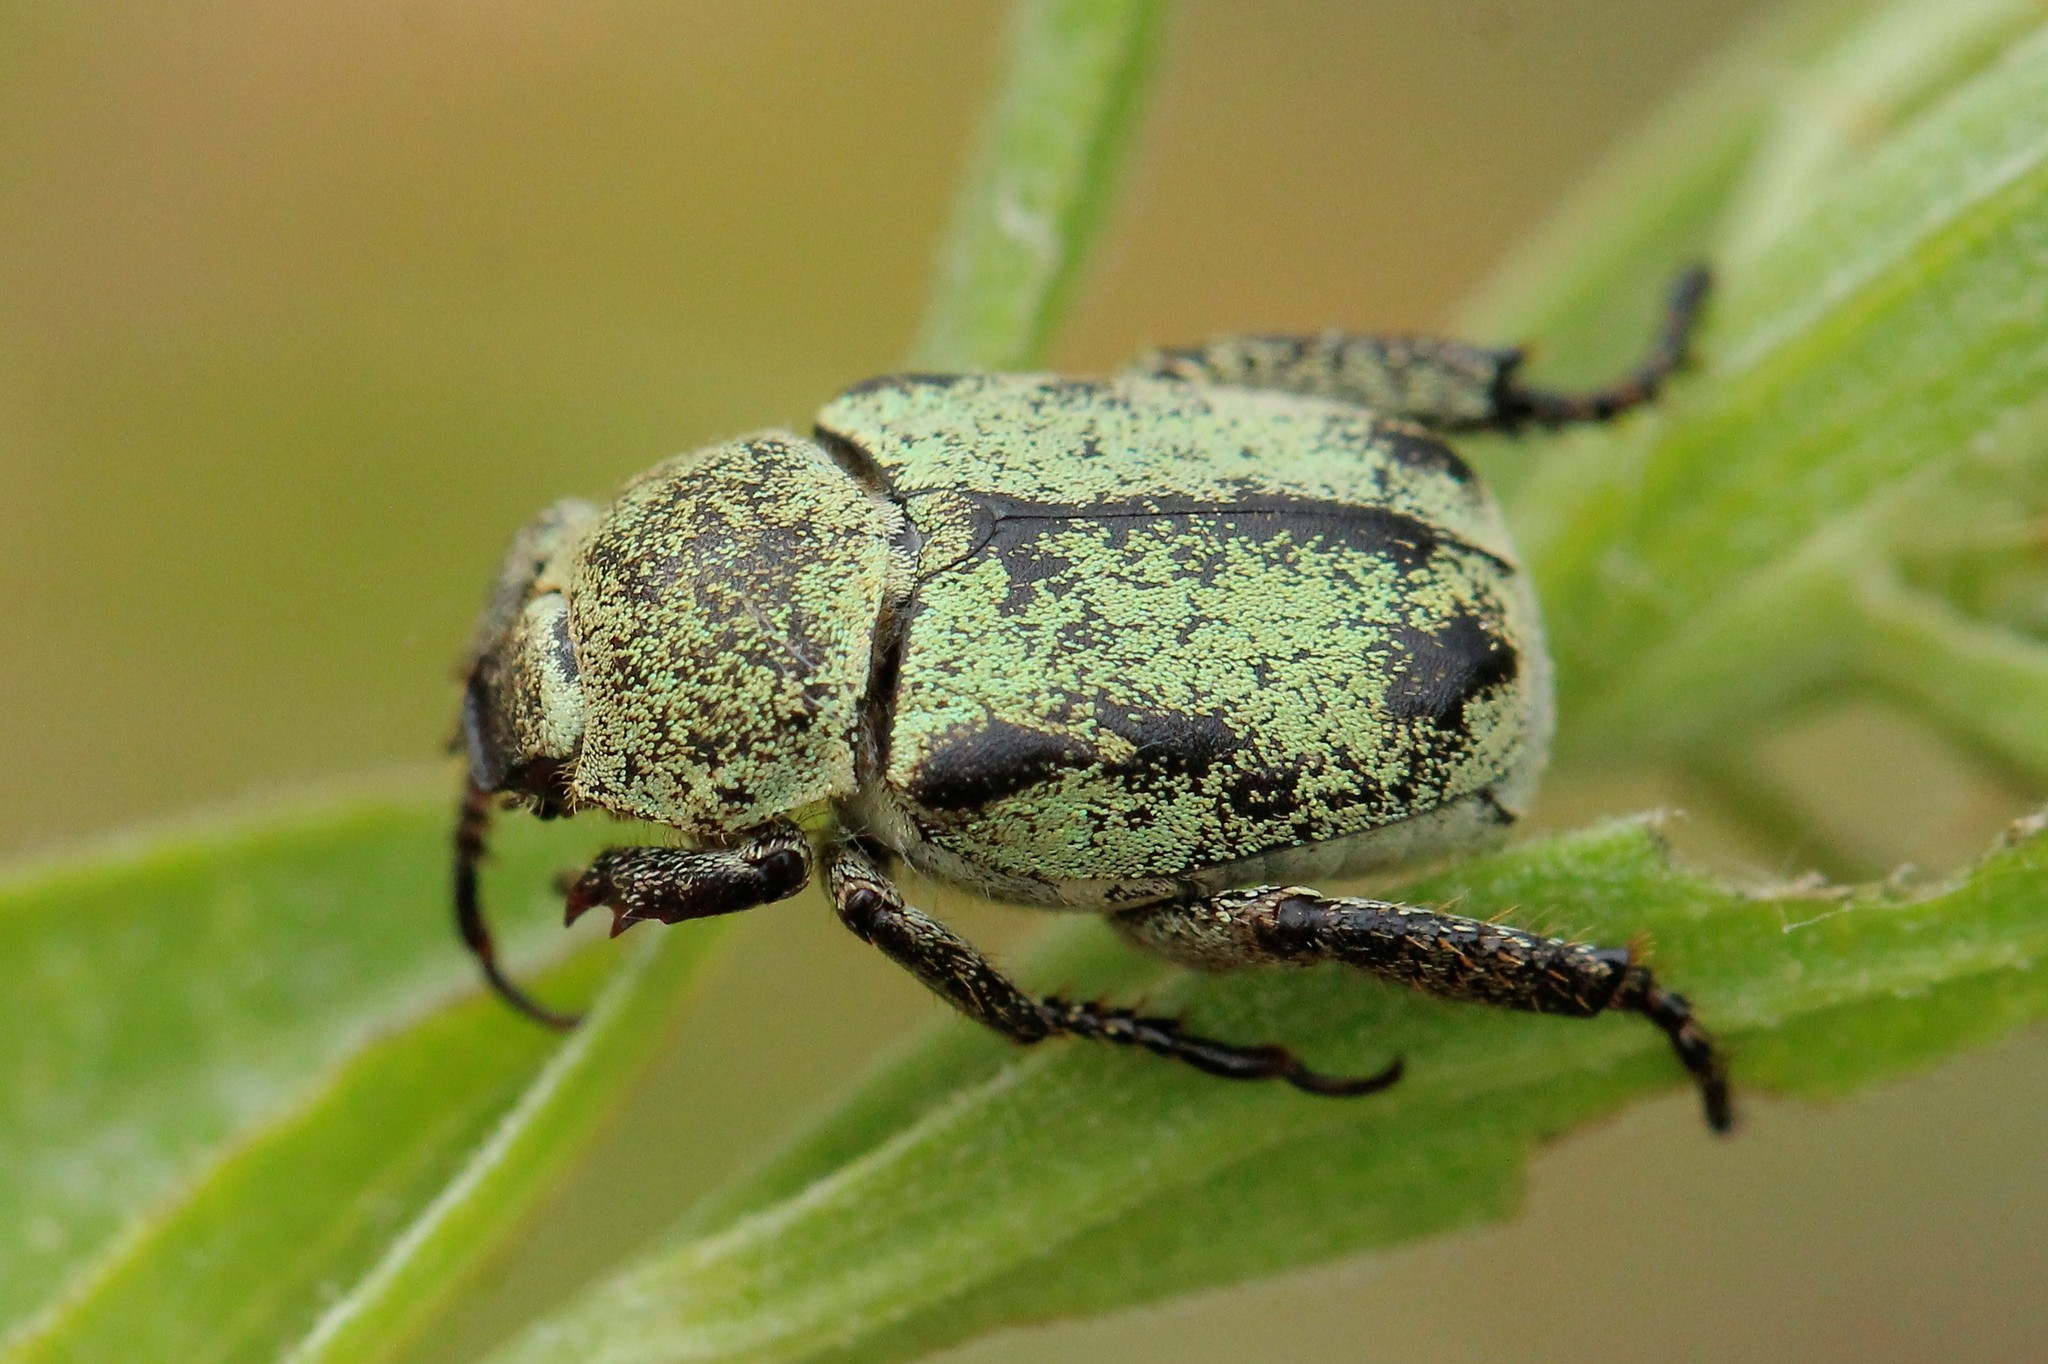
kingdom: Animalia
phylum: Arthropoda
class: Insecta
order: Coleoptera
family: Scarabaeidae
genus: Hoplia
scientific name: Hoplia parvula
